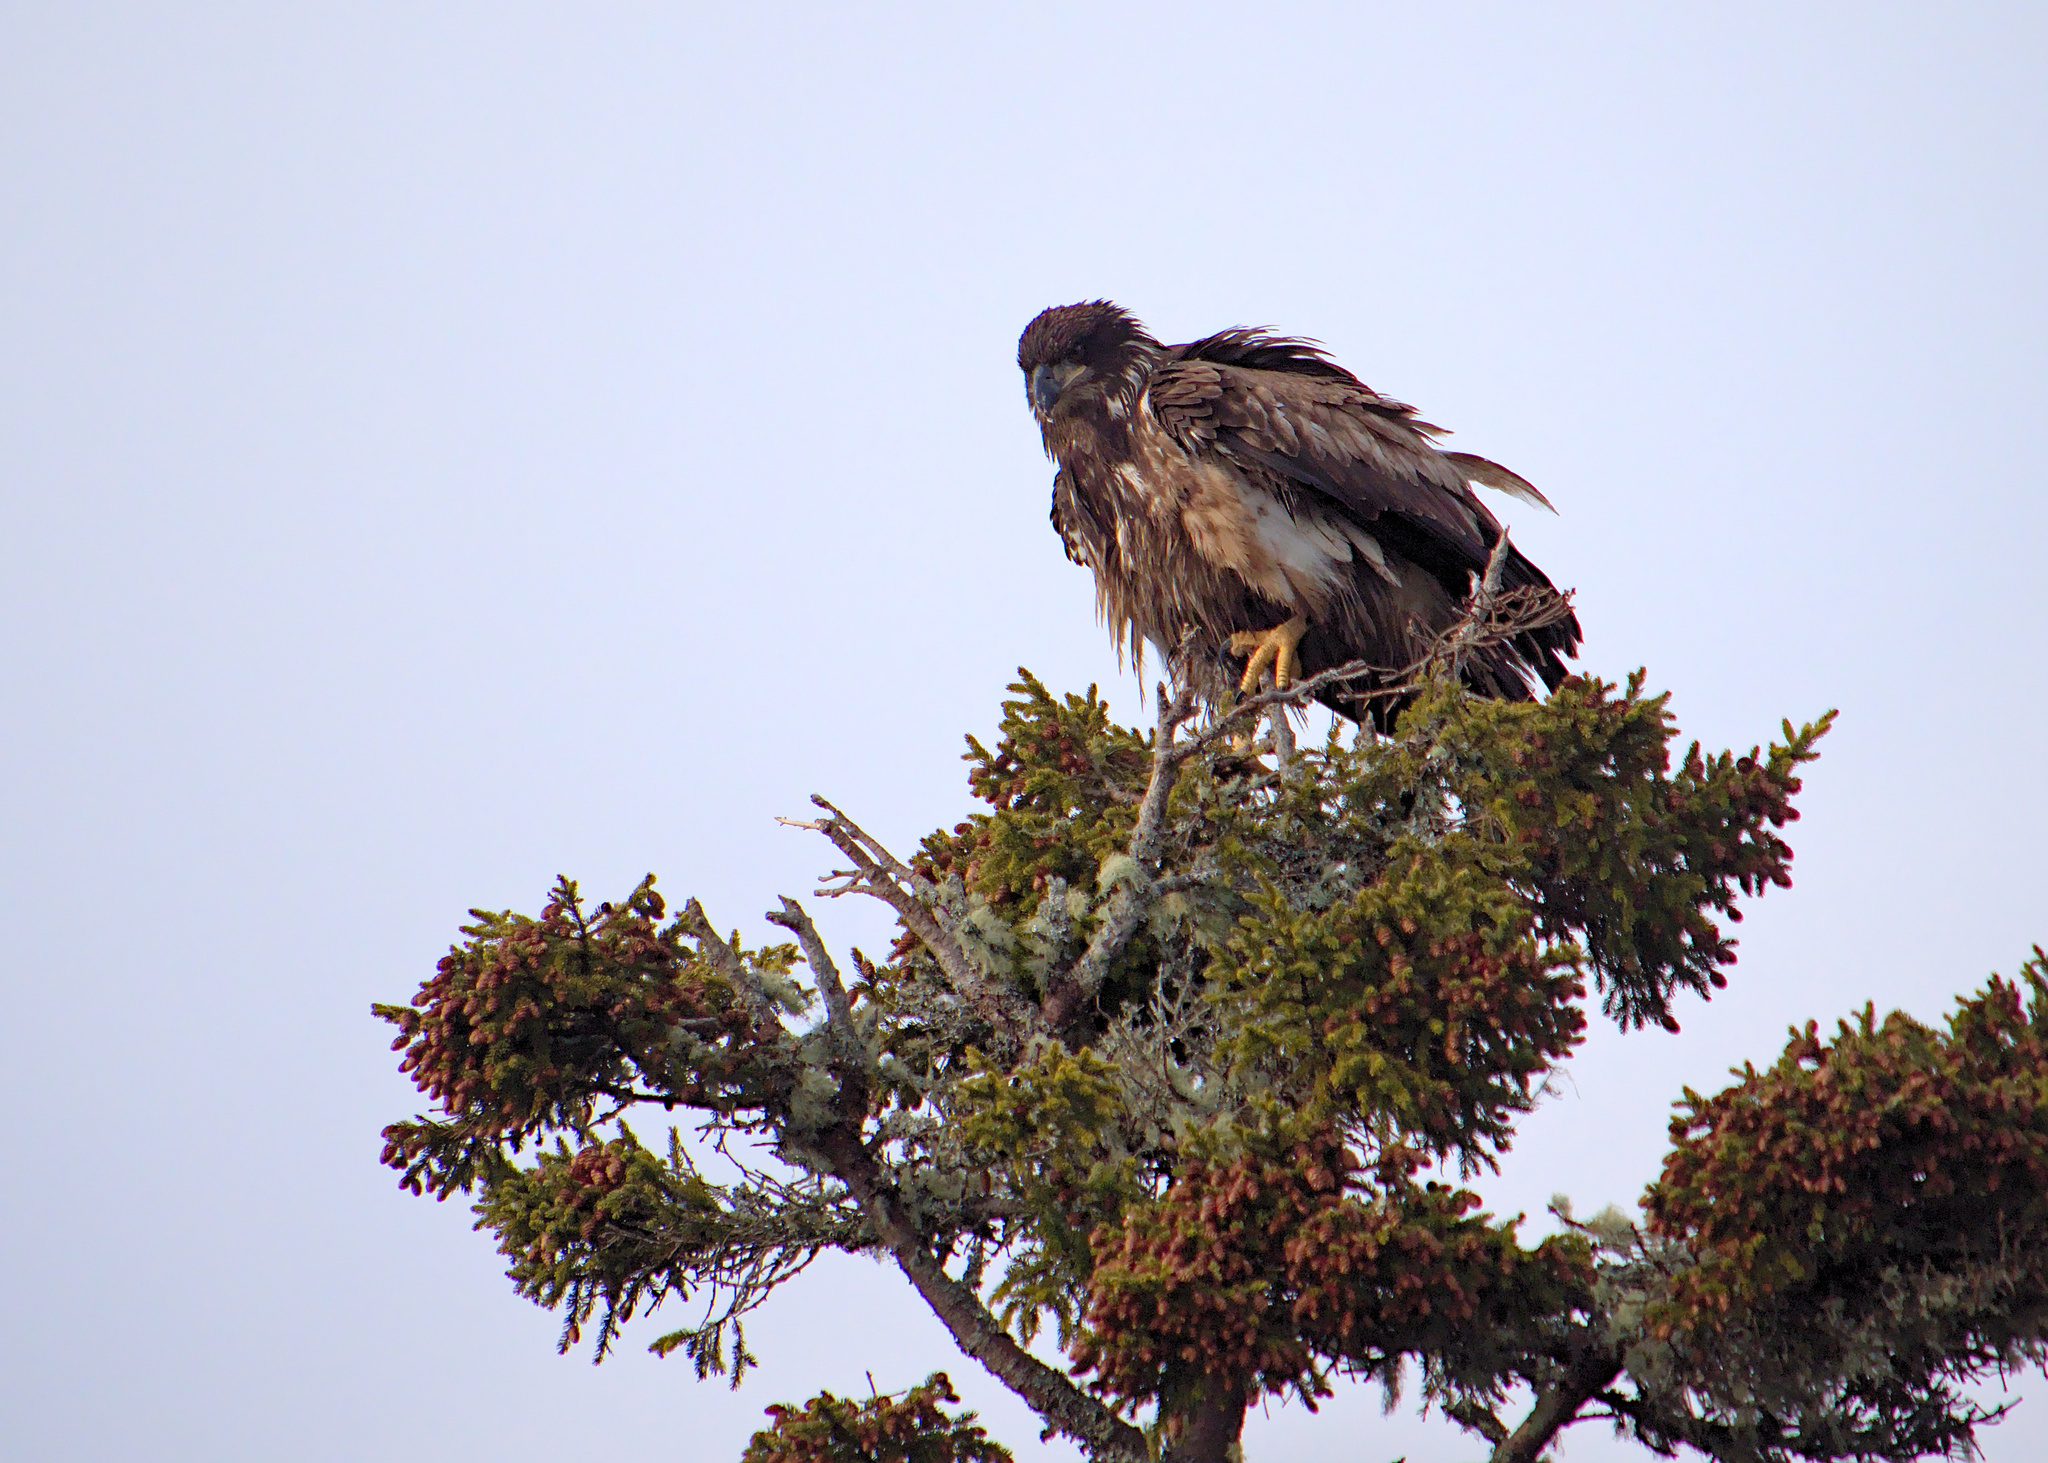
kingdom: Animalia
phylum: Chordata
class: Aves
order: Accipitriformes
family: Accipitridae
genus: Haliaeetus
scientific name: Haliaeetus leucocephalus
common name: Bald eagle
